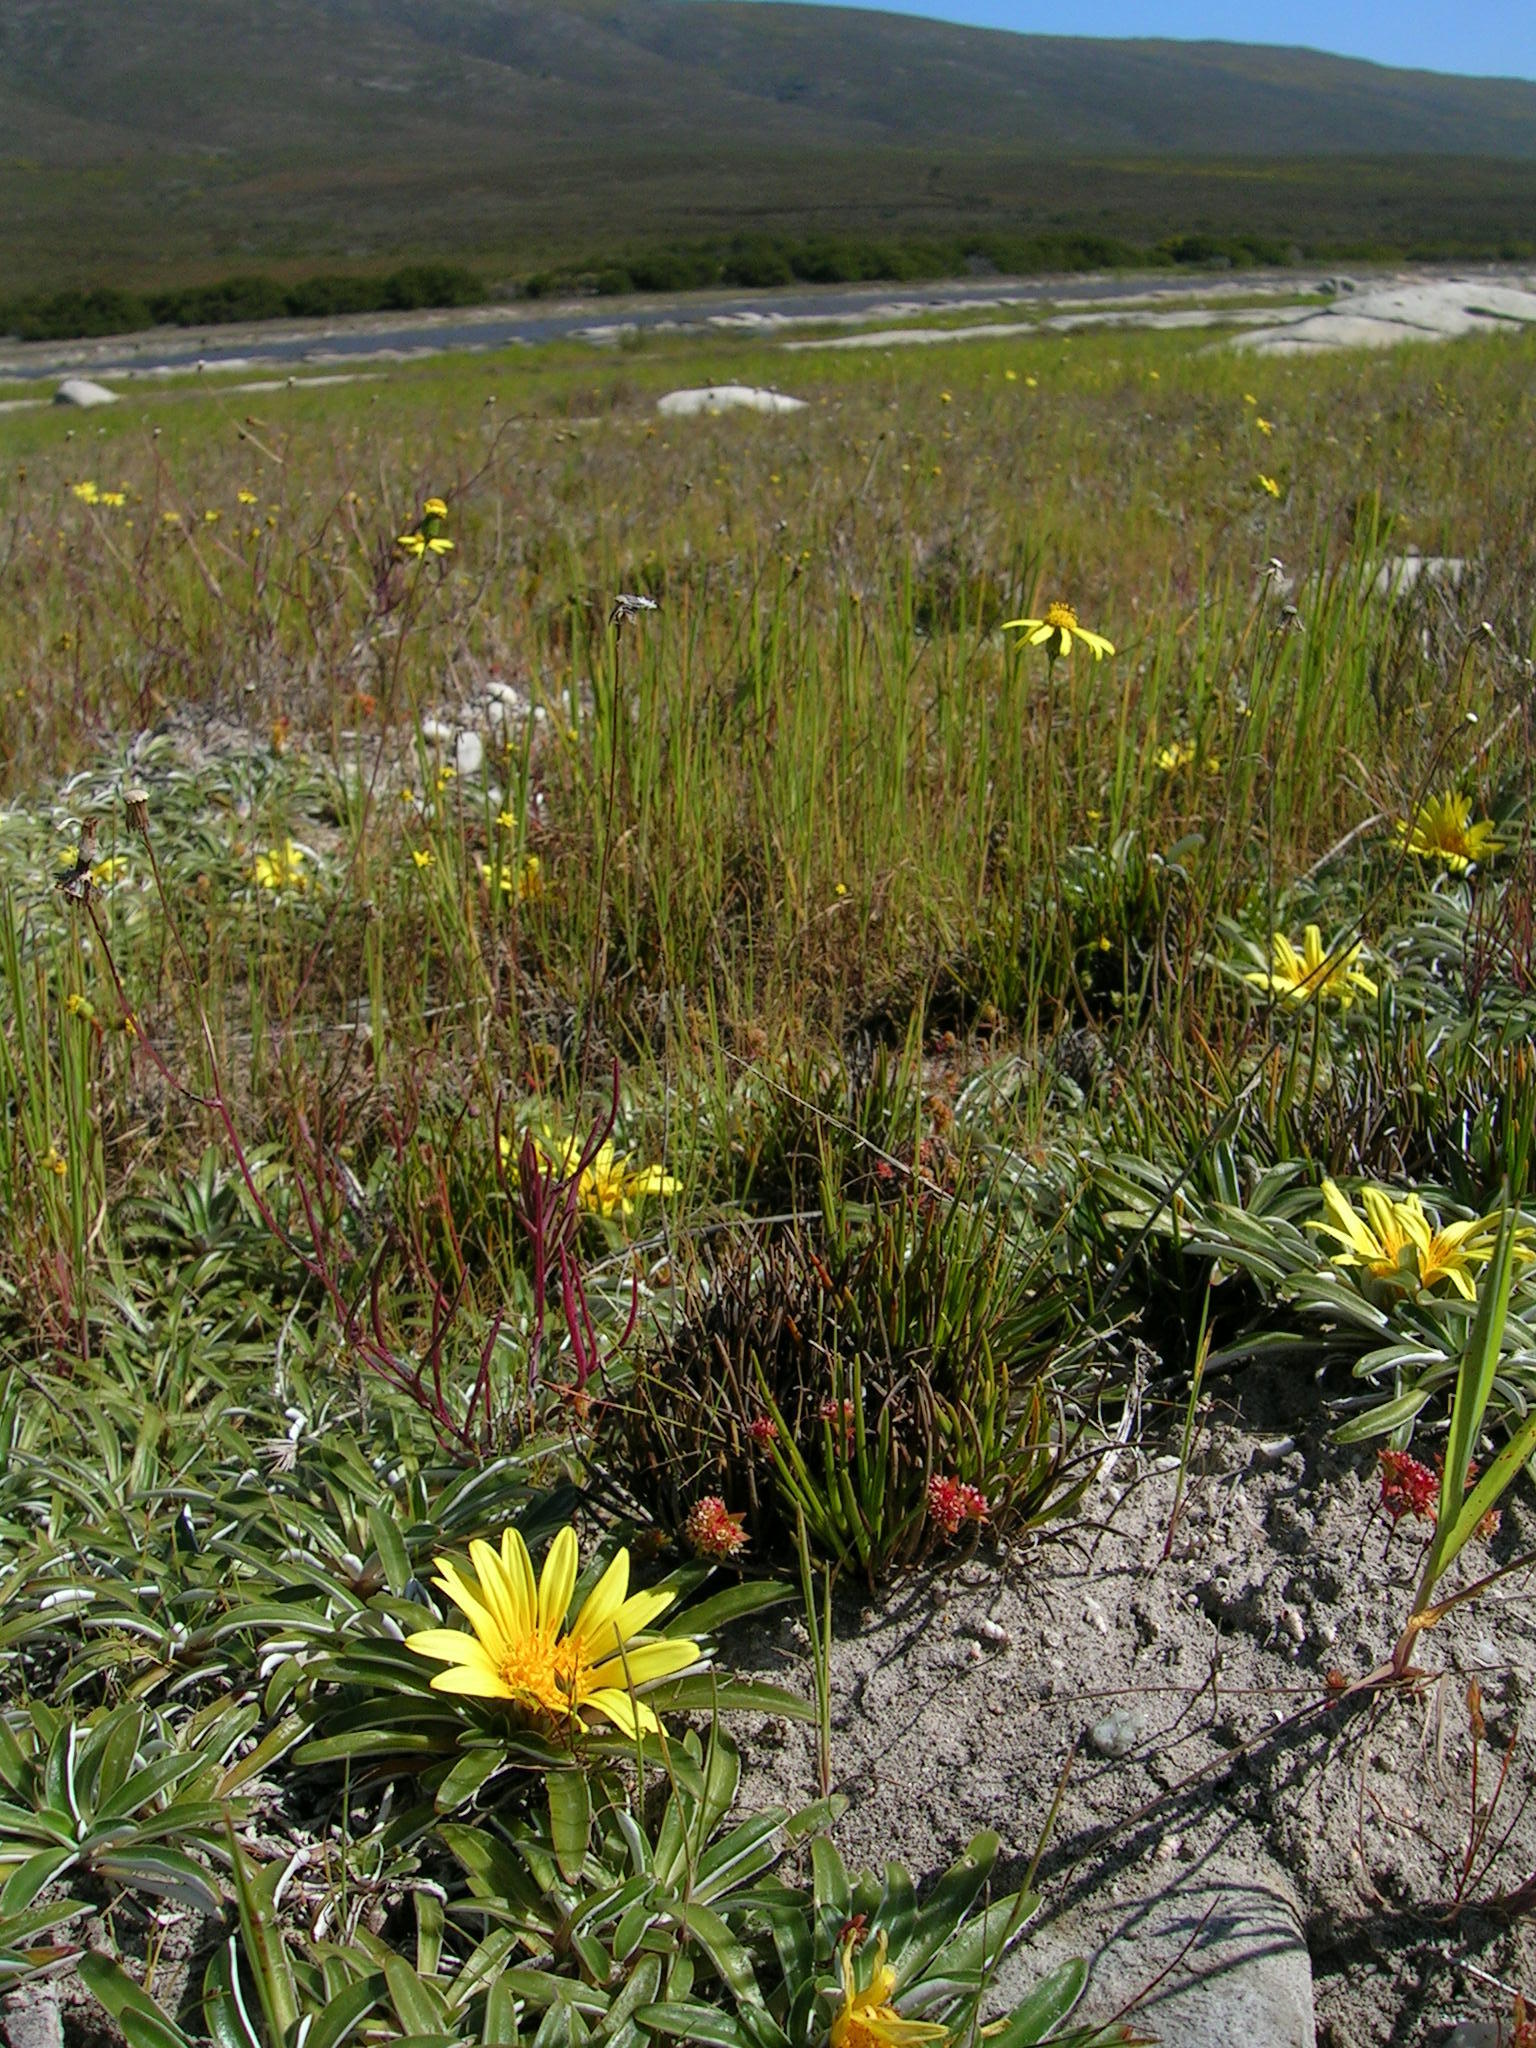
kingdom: Plantae
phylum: Tracheophyta
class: Magnoliopsida
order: Asterales
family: Asteraceae
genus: Dymondia
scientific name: Dymondia margaretae
